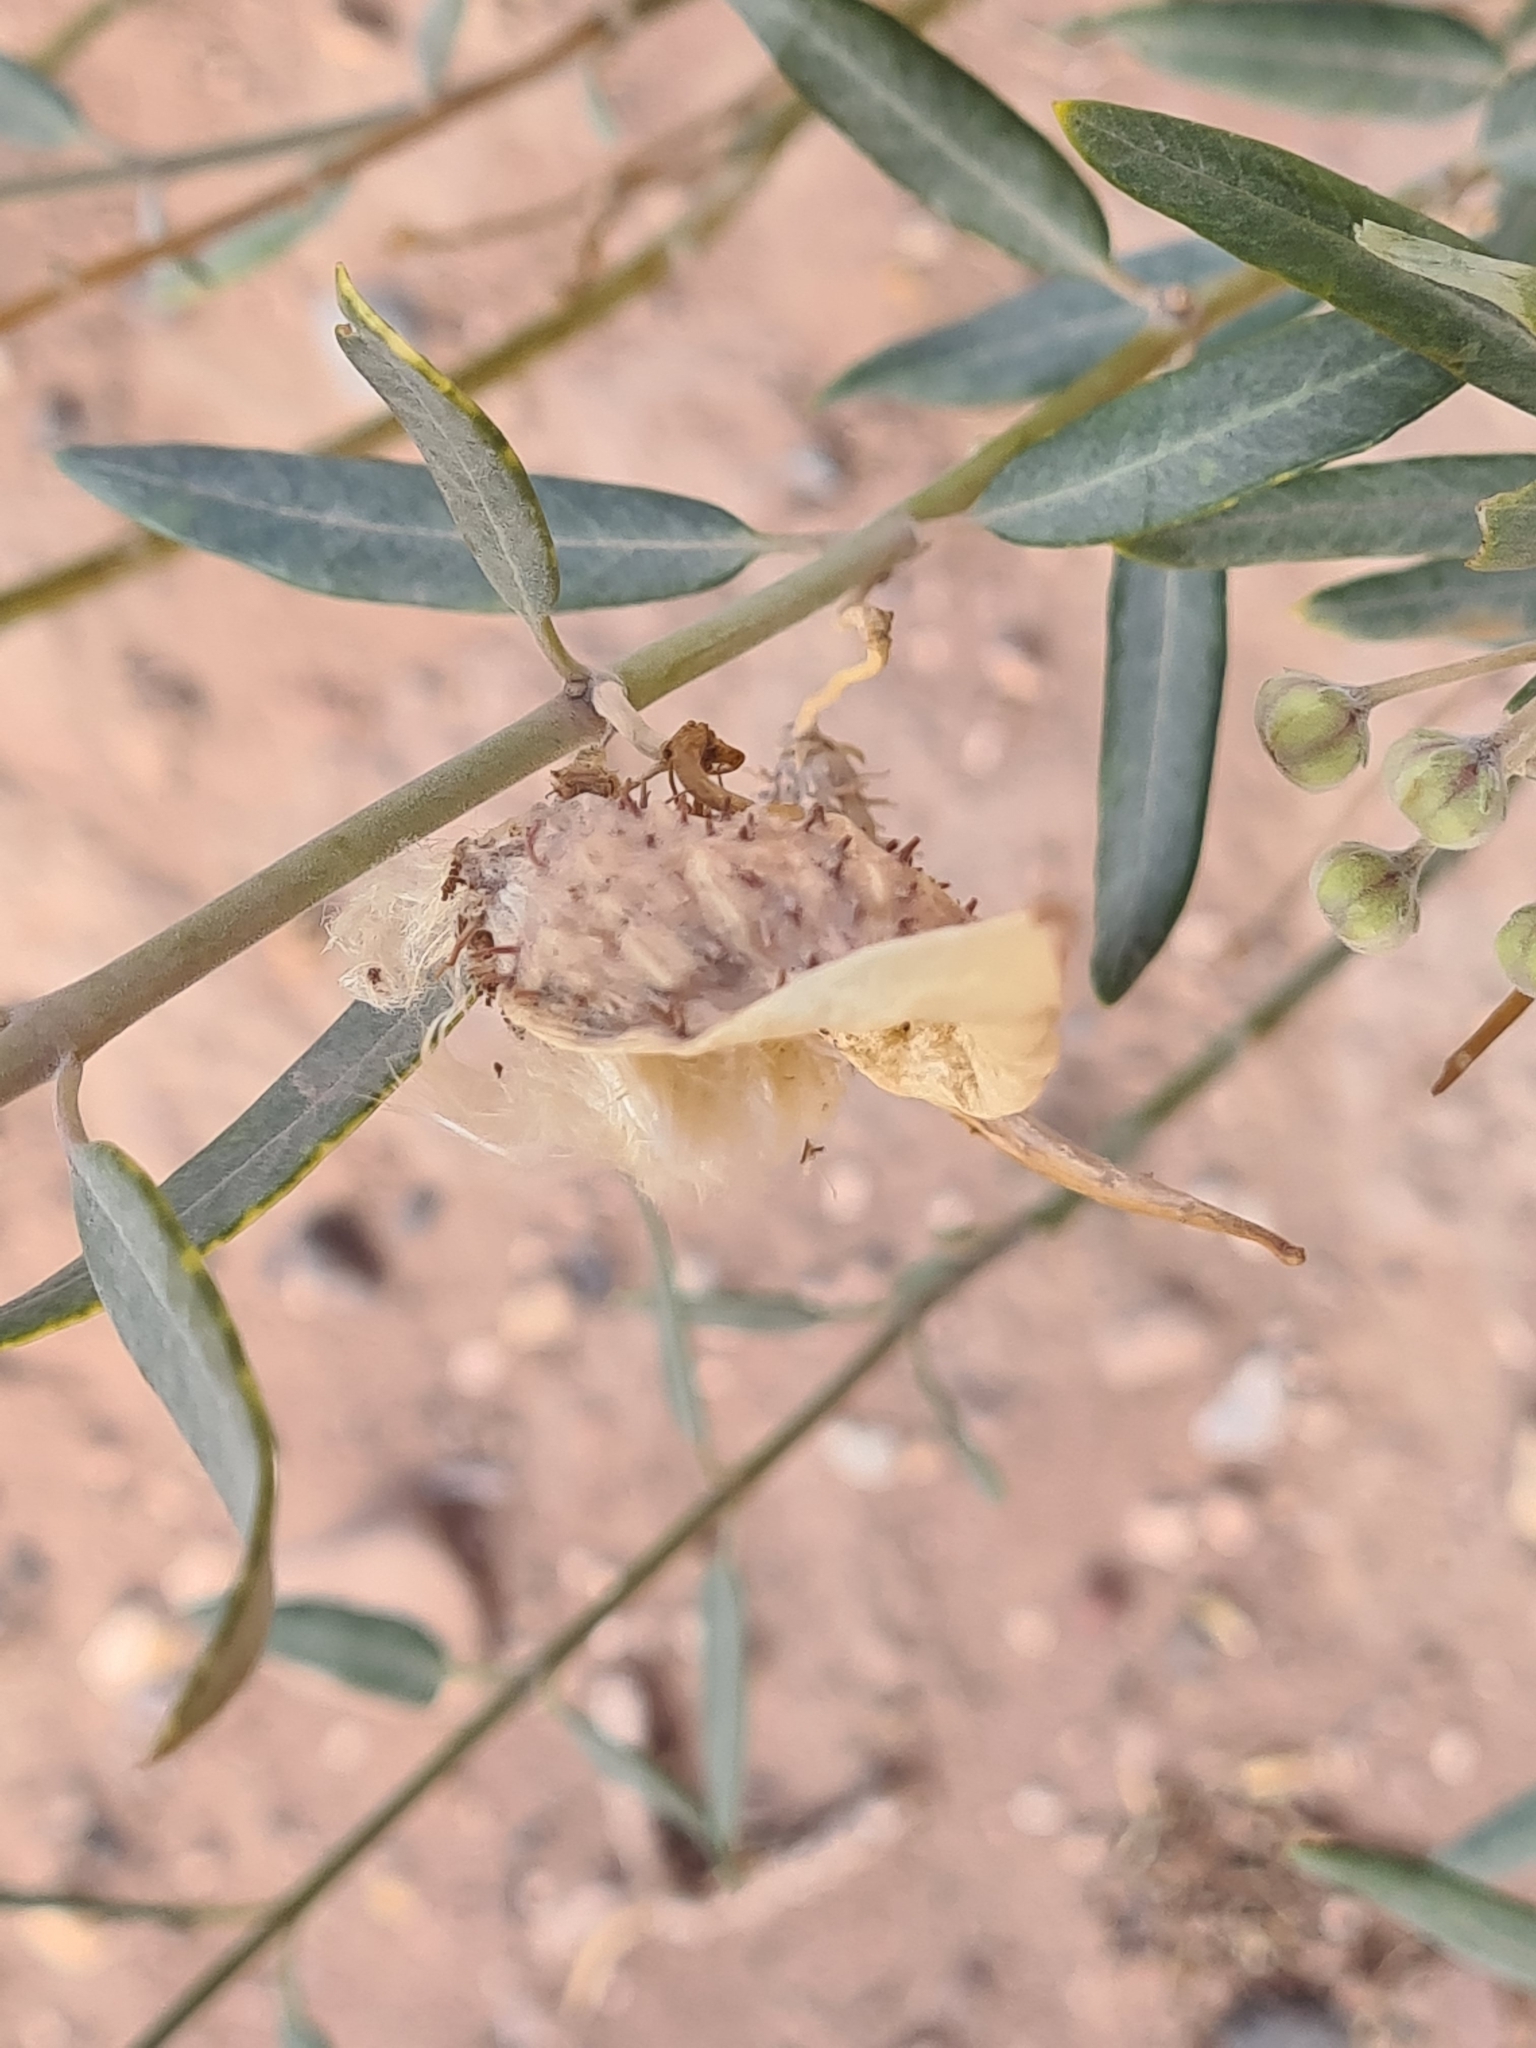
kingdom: Plantae
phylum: Tracheophyta
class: Magnoliopsida
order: Gentianales
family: Apocynaceae
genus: Gomphocarpus
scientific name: Gomphocarpus sinaicus
